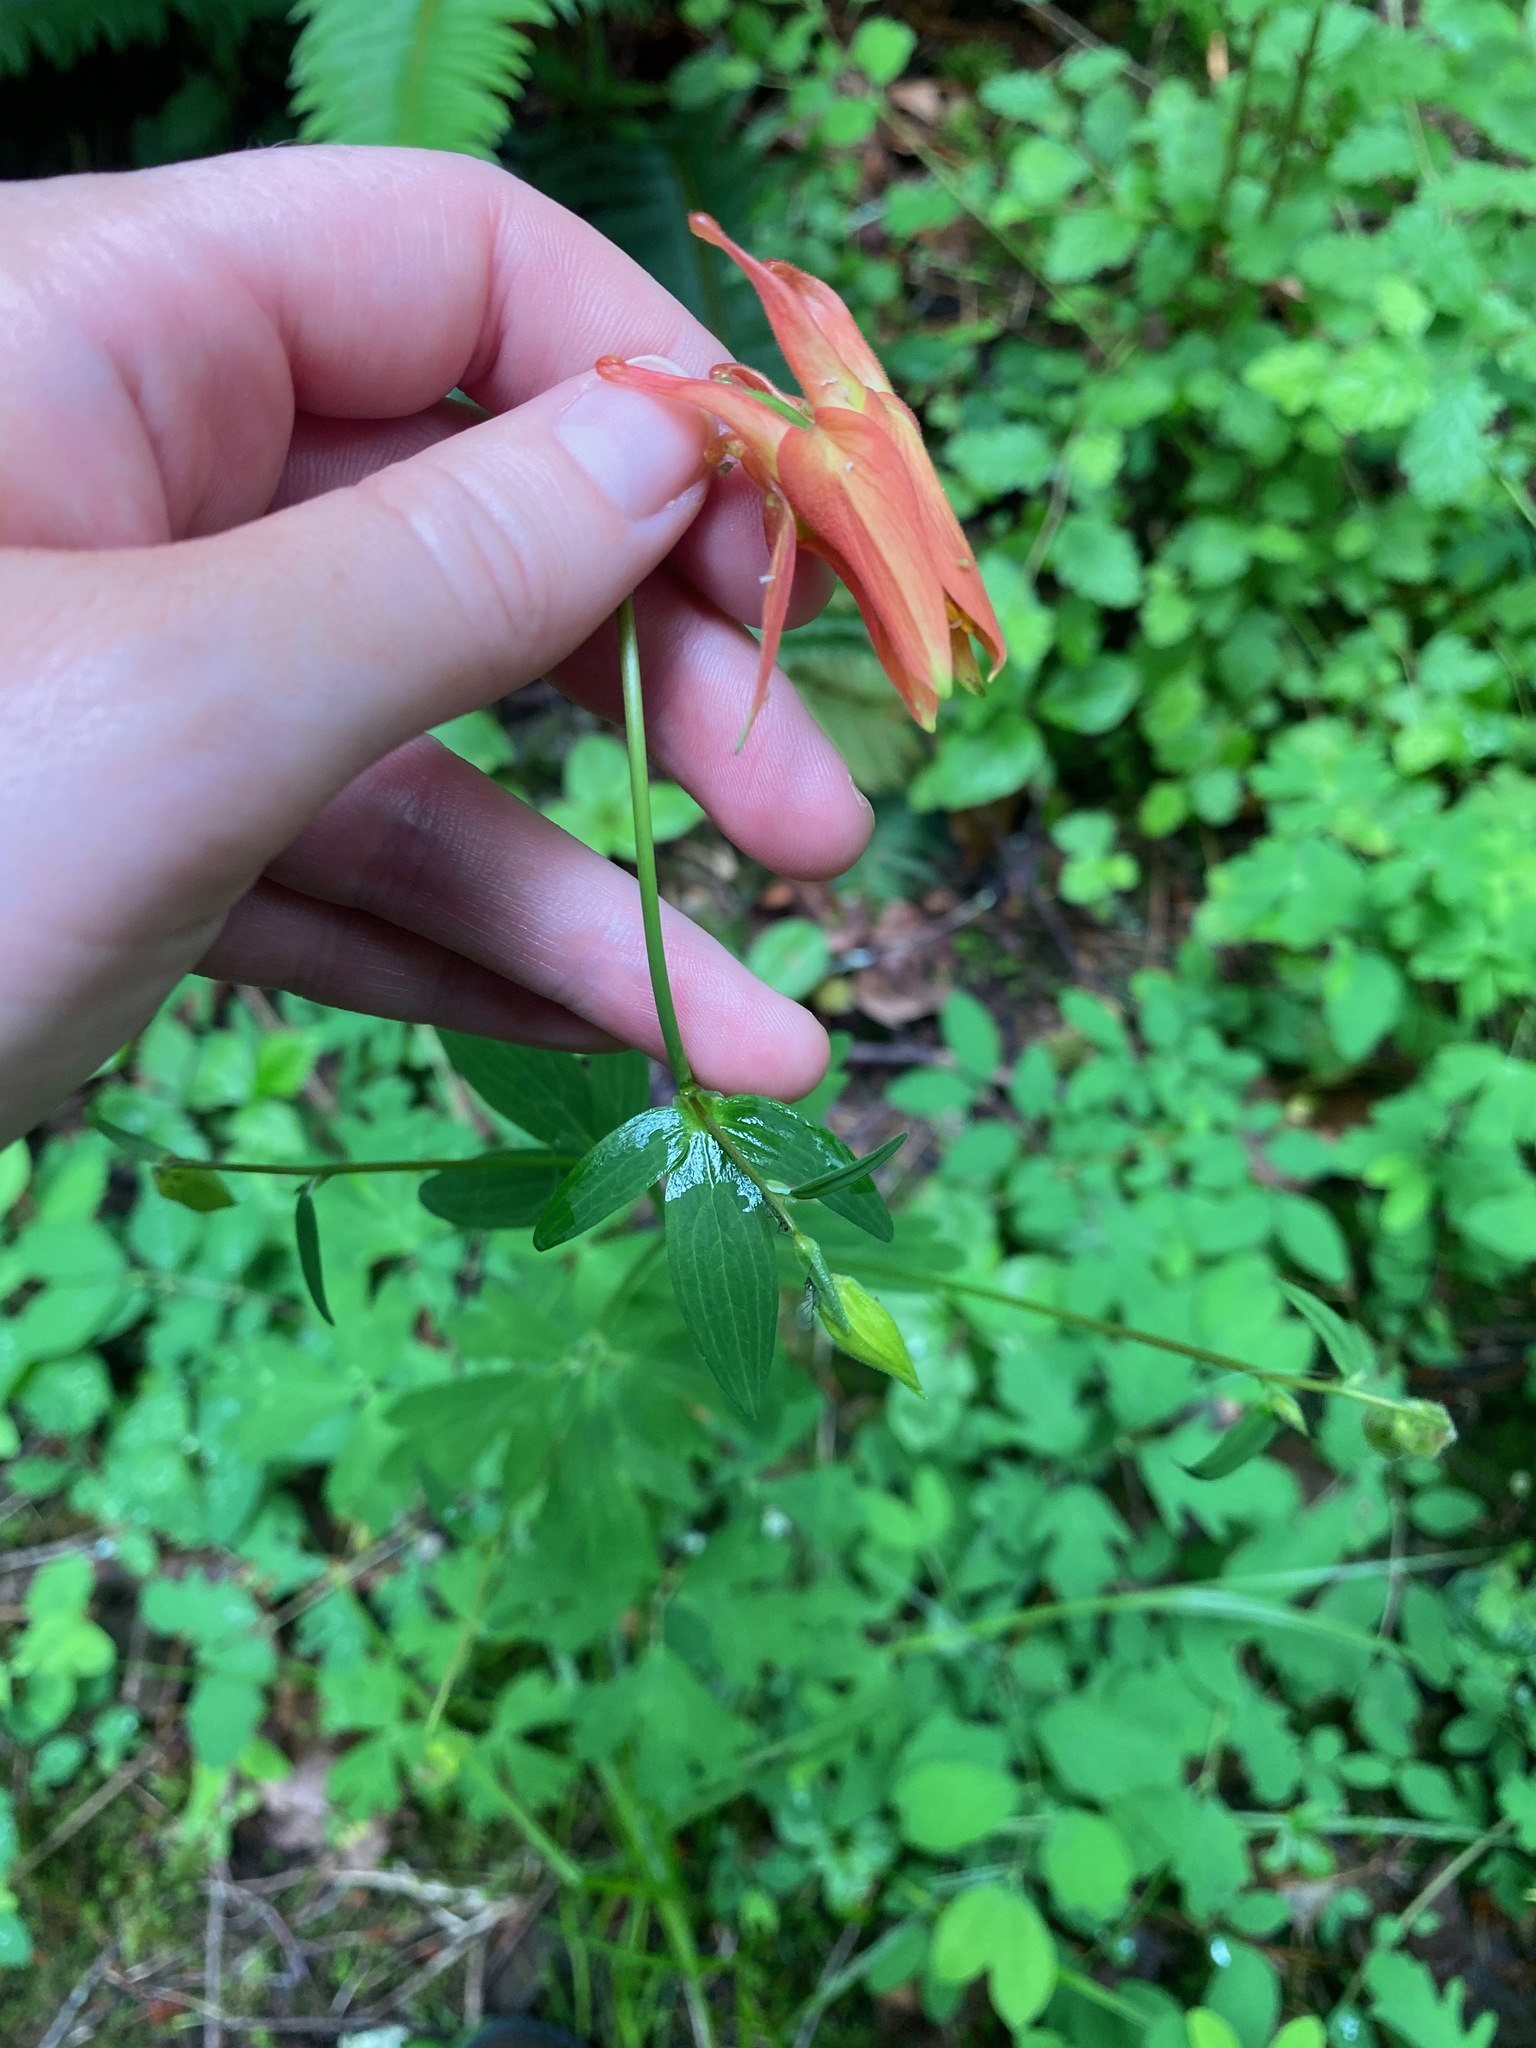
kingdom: Plantae
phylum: Tracheophyta
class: Magnoliopsida
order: Ranunculales
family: Ranunculaceae
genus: Aquilegia
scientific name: Aquilegia formosa
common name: Sitka columbine
